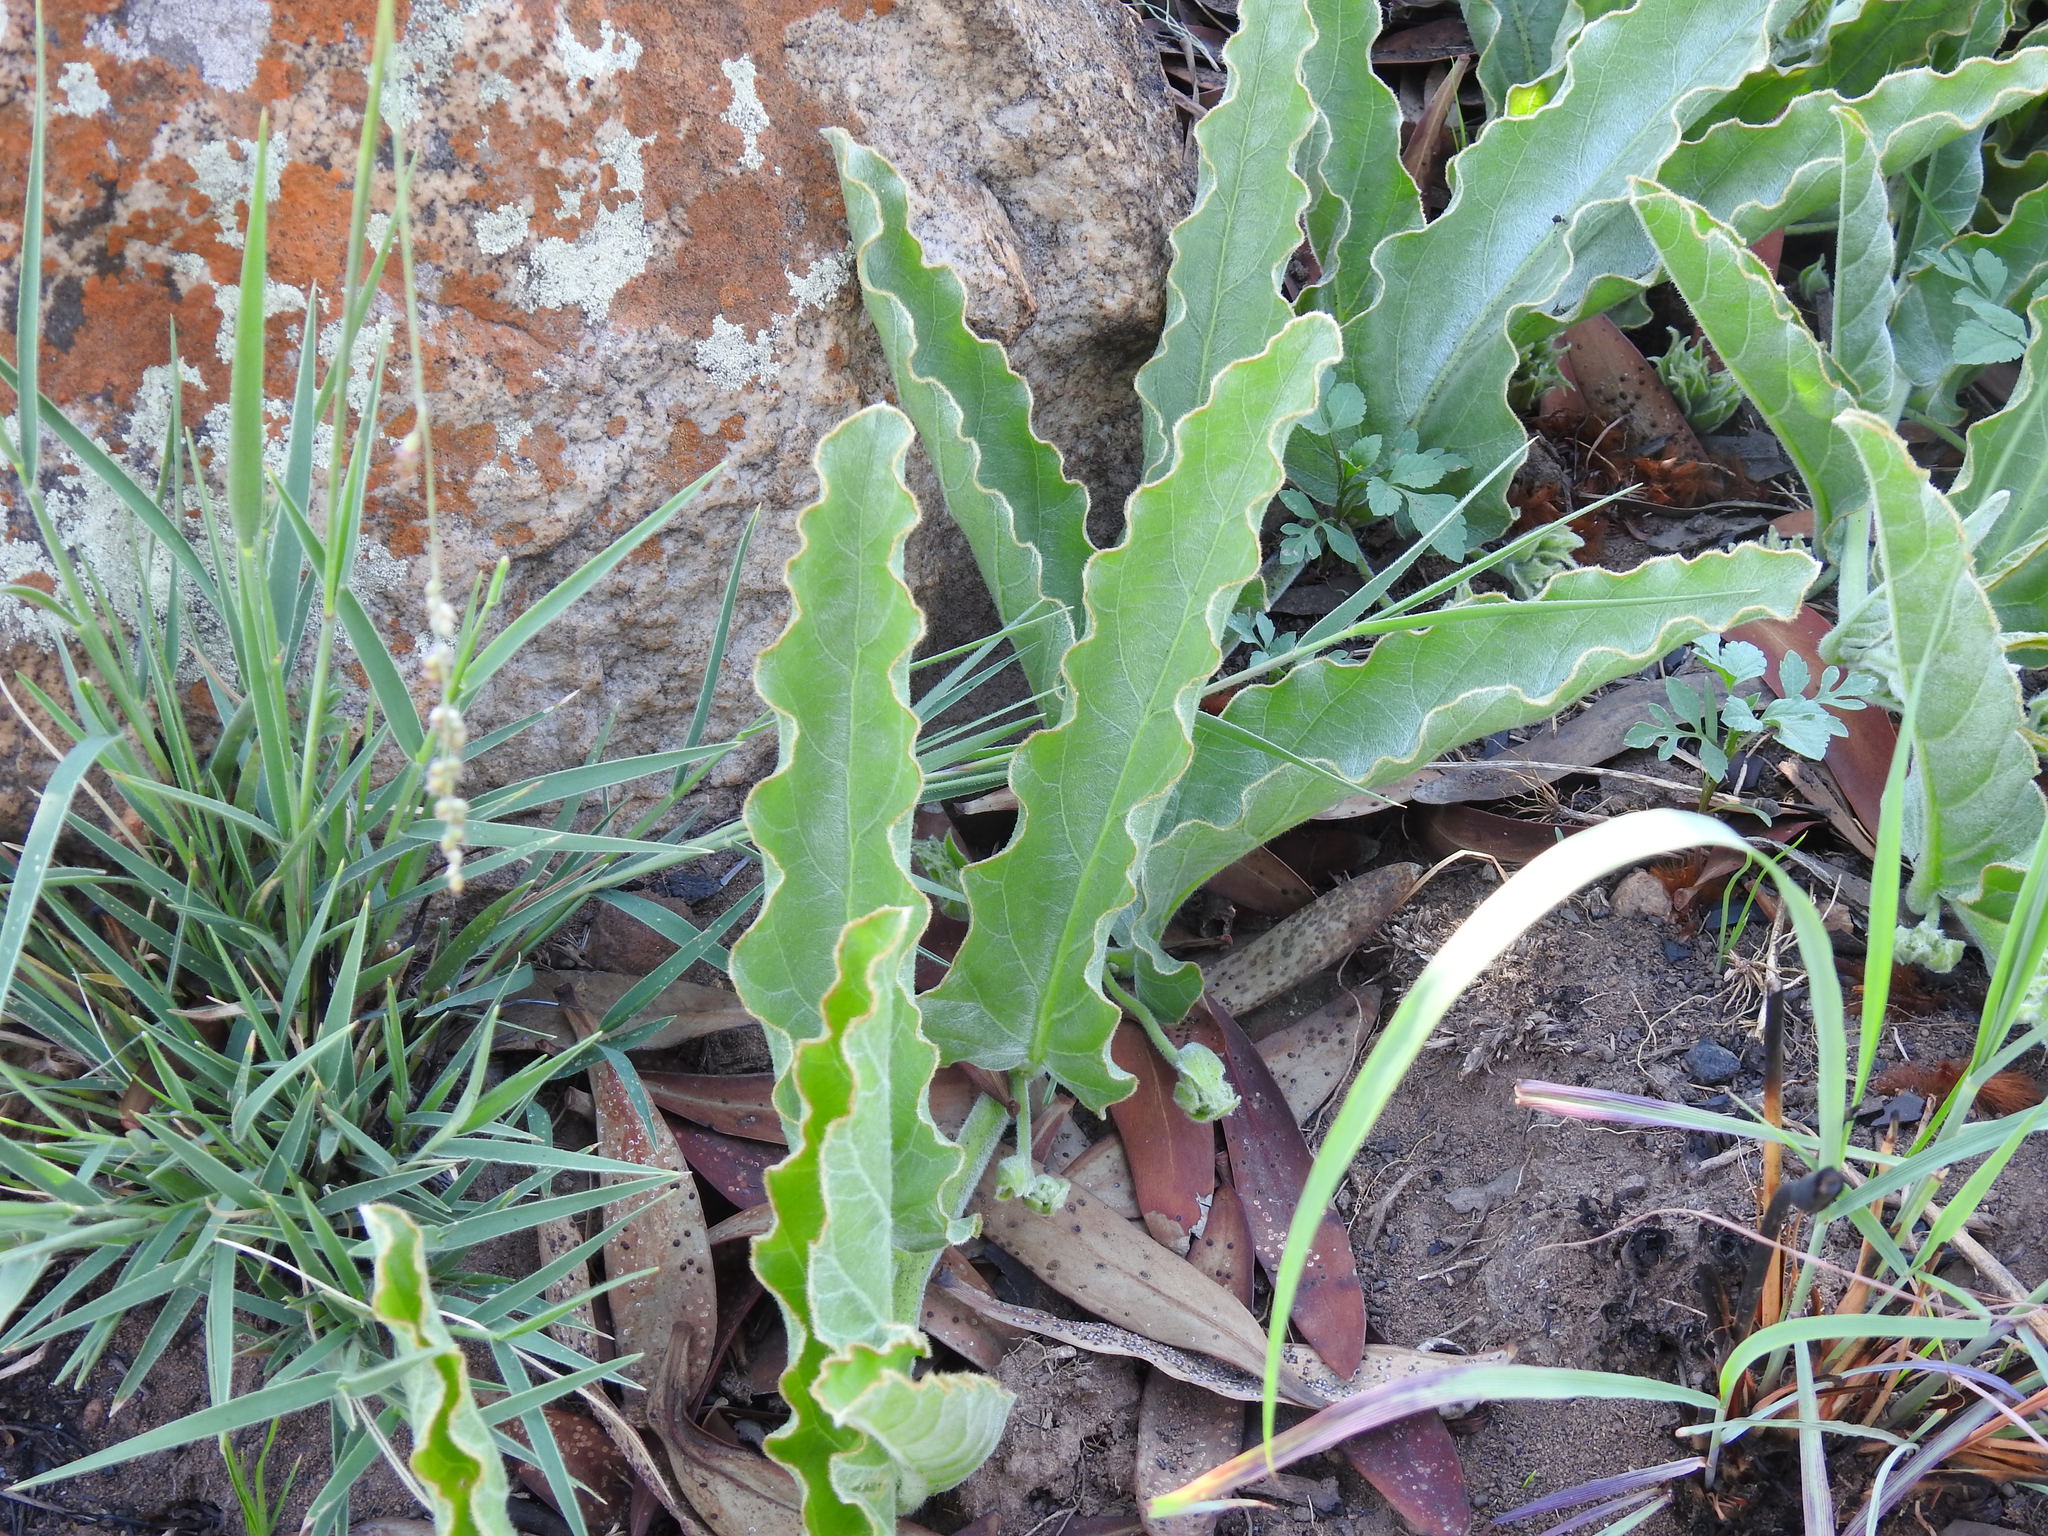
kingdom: Plantae
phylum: Tracheophyta
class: Magnoliopsida
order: Solanales
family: Convolvulaceae
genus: Ipomoea
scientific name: Ipomoea ommanneyi
